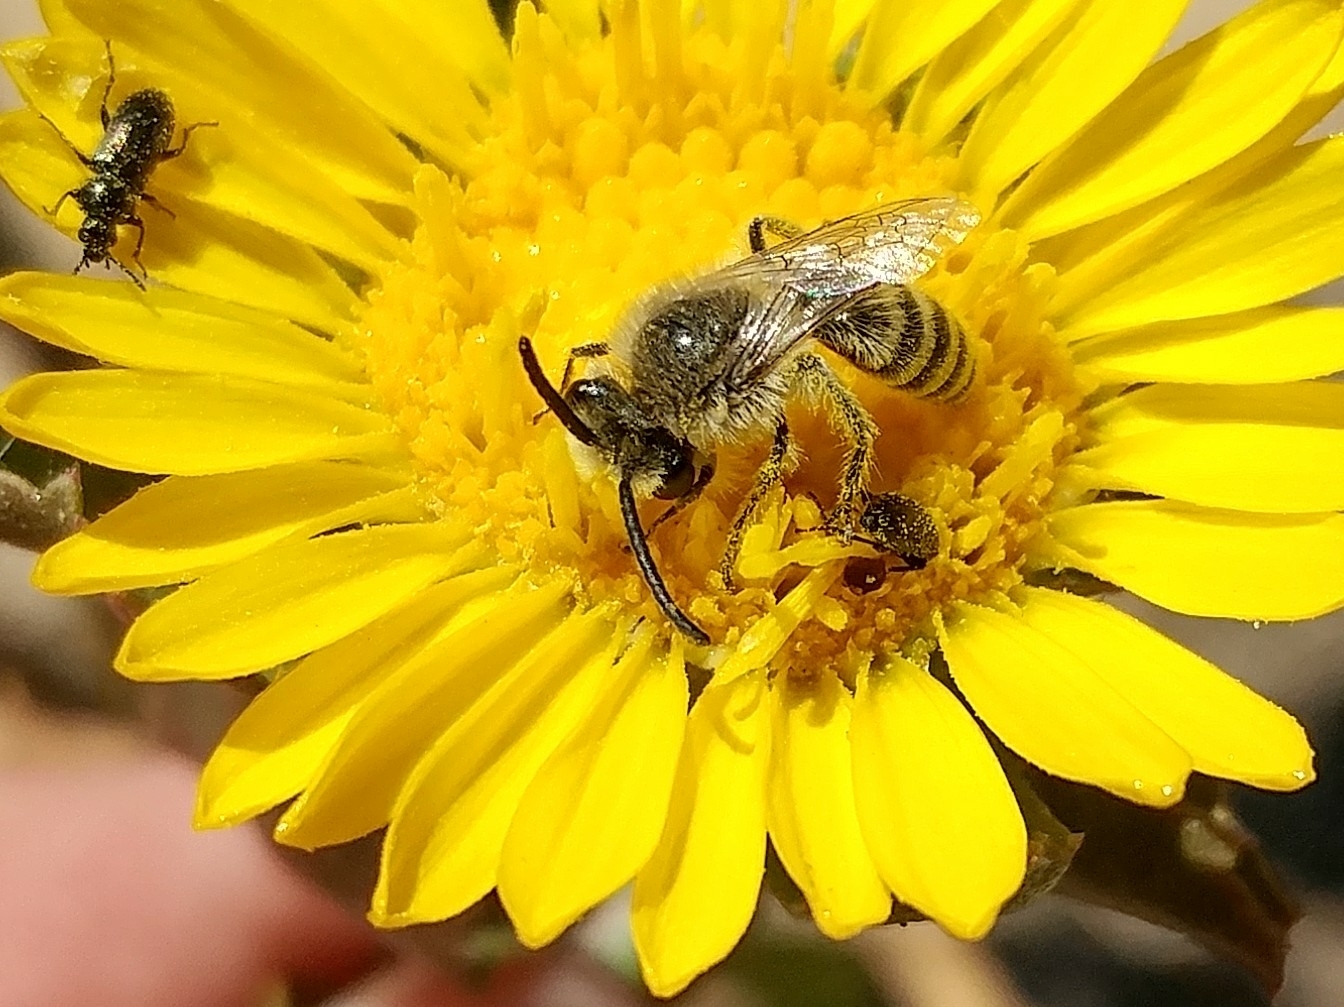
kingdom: Animalia
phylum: Arthropoda
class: Insecta
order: Hymenoptera
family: Colletidae
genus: Colletes
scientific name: Colletes hyalinus
